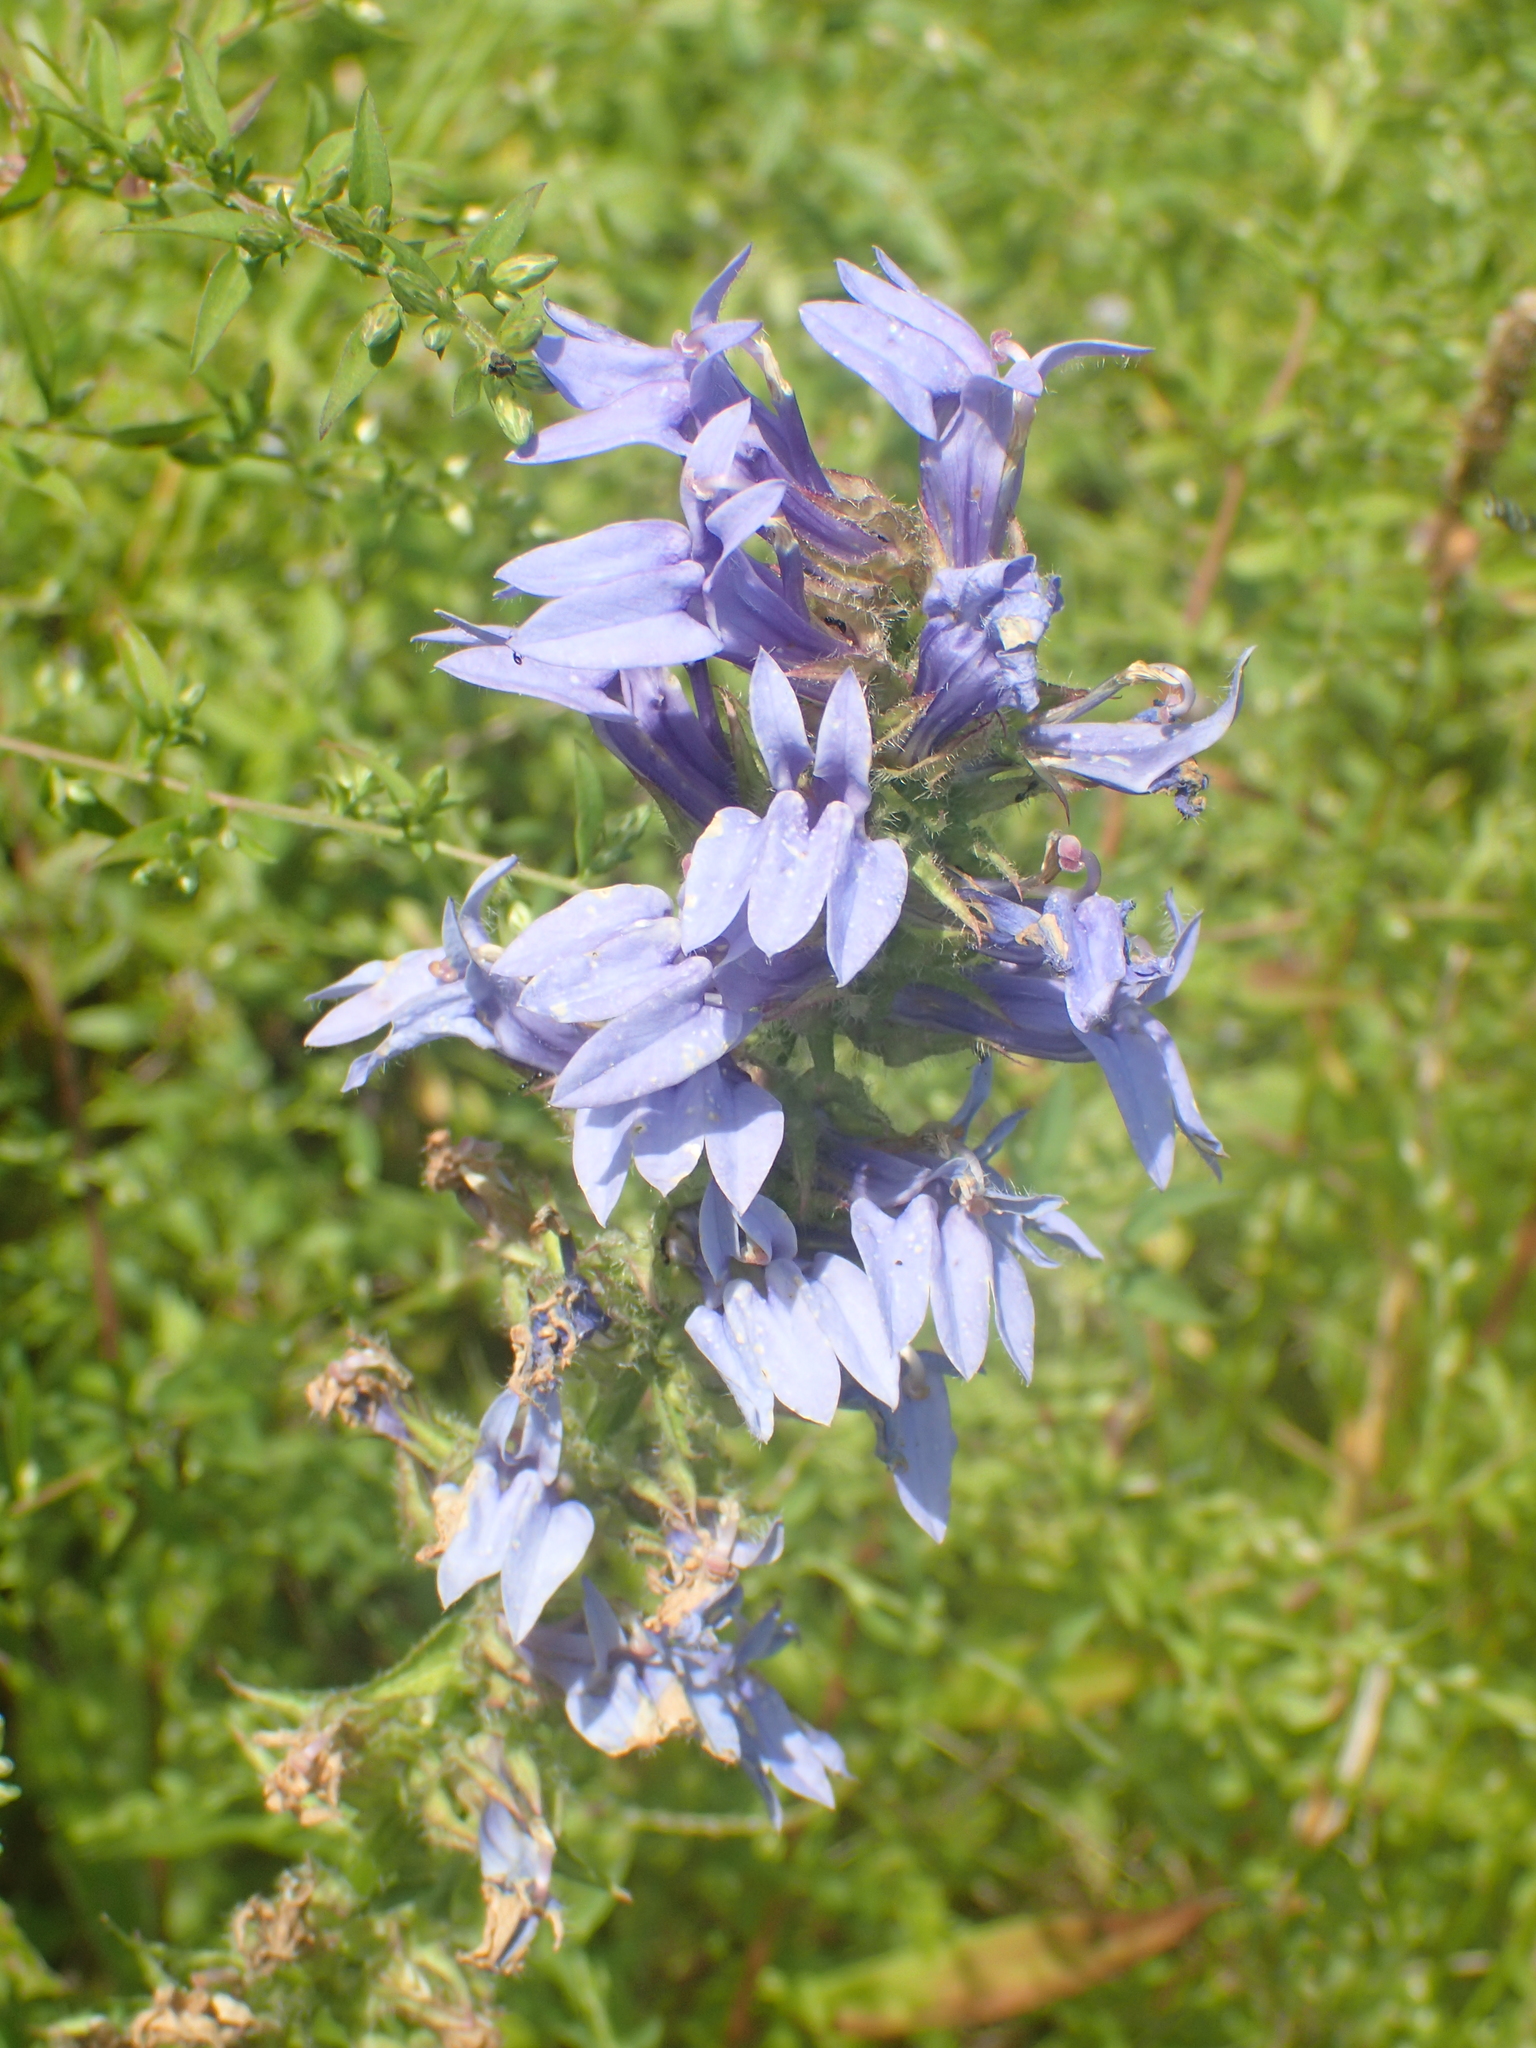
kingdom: Plantae
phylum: Tracheophyta
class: Magnoliopsida
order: Asterales
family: Campanulaceae
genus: Lobelia
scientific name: Lobelia siphilitica
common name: Great lobelia
